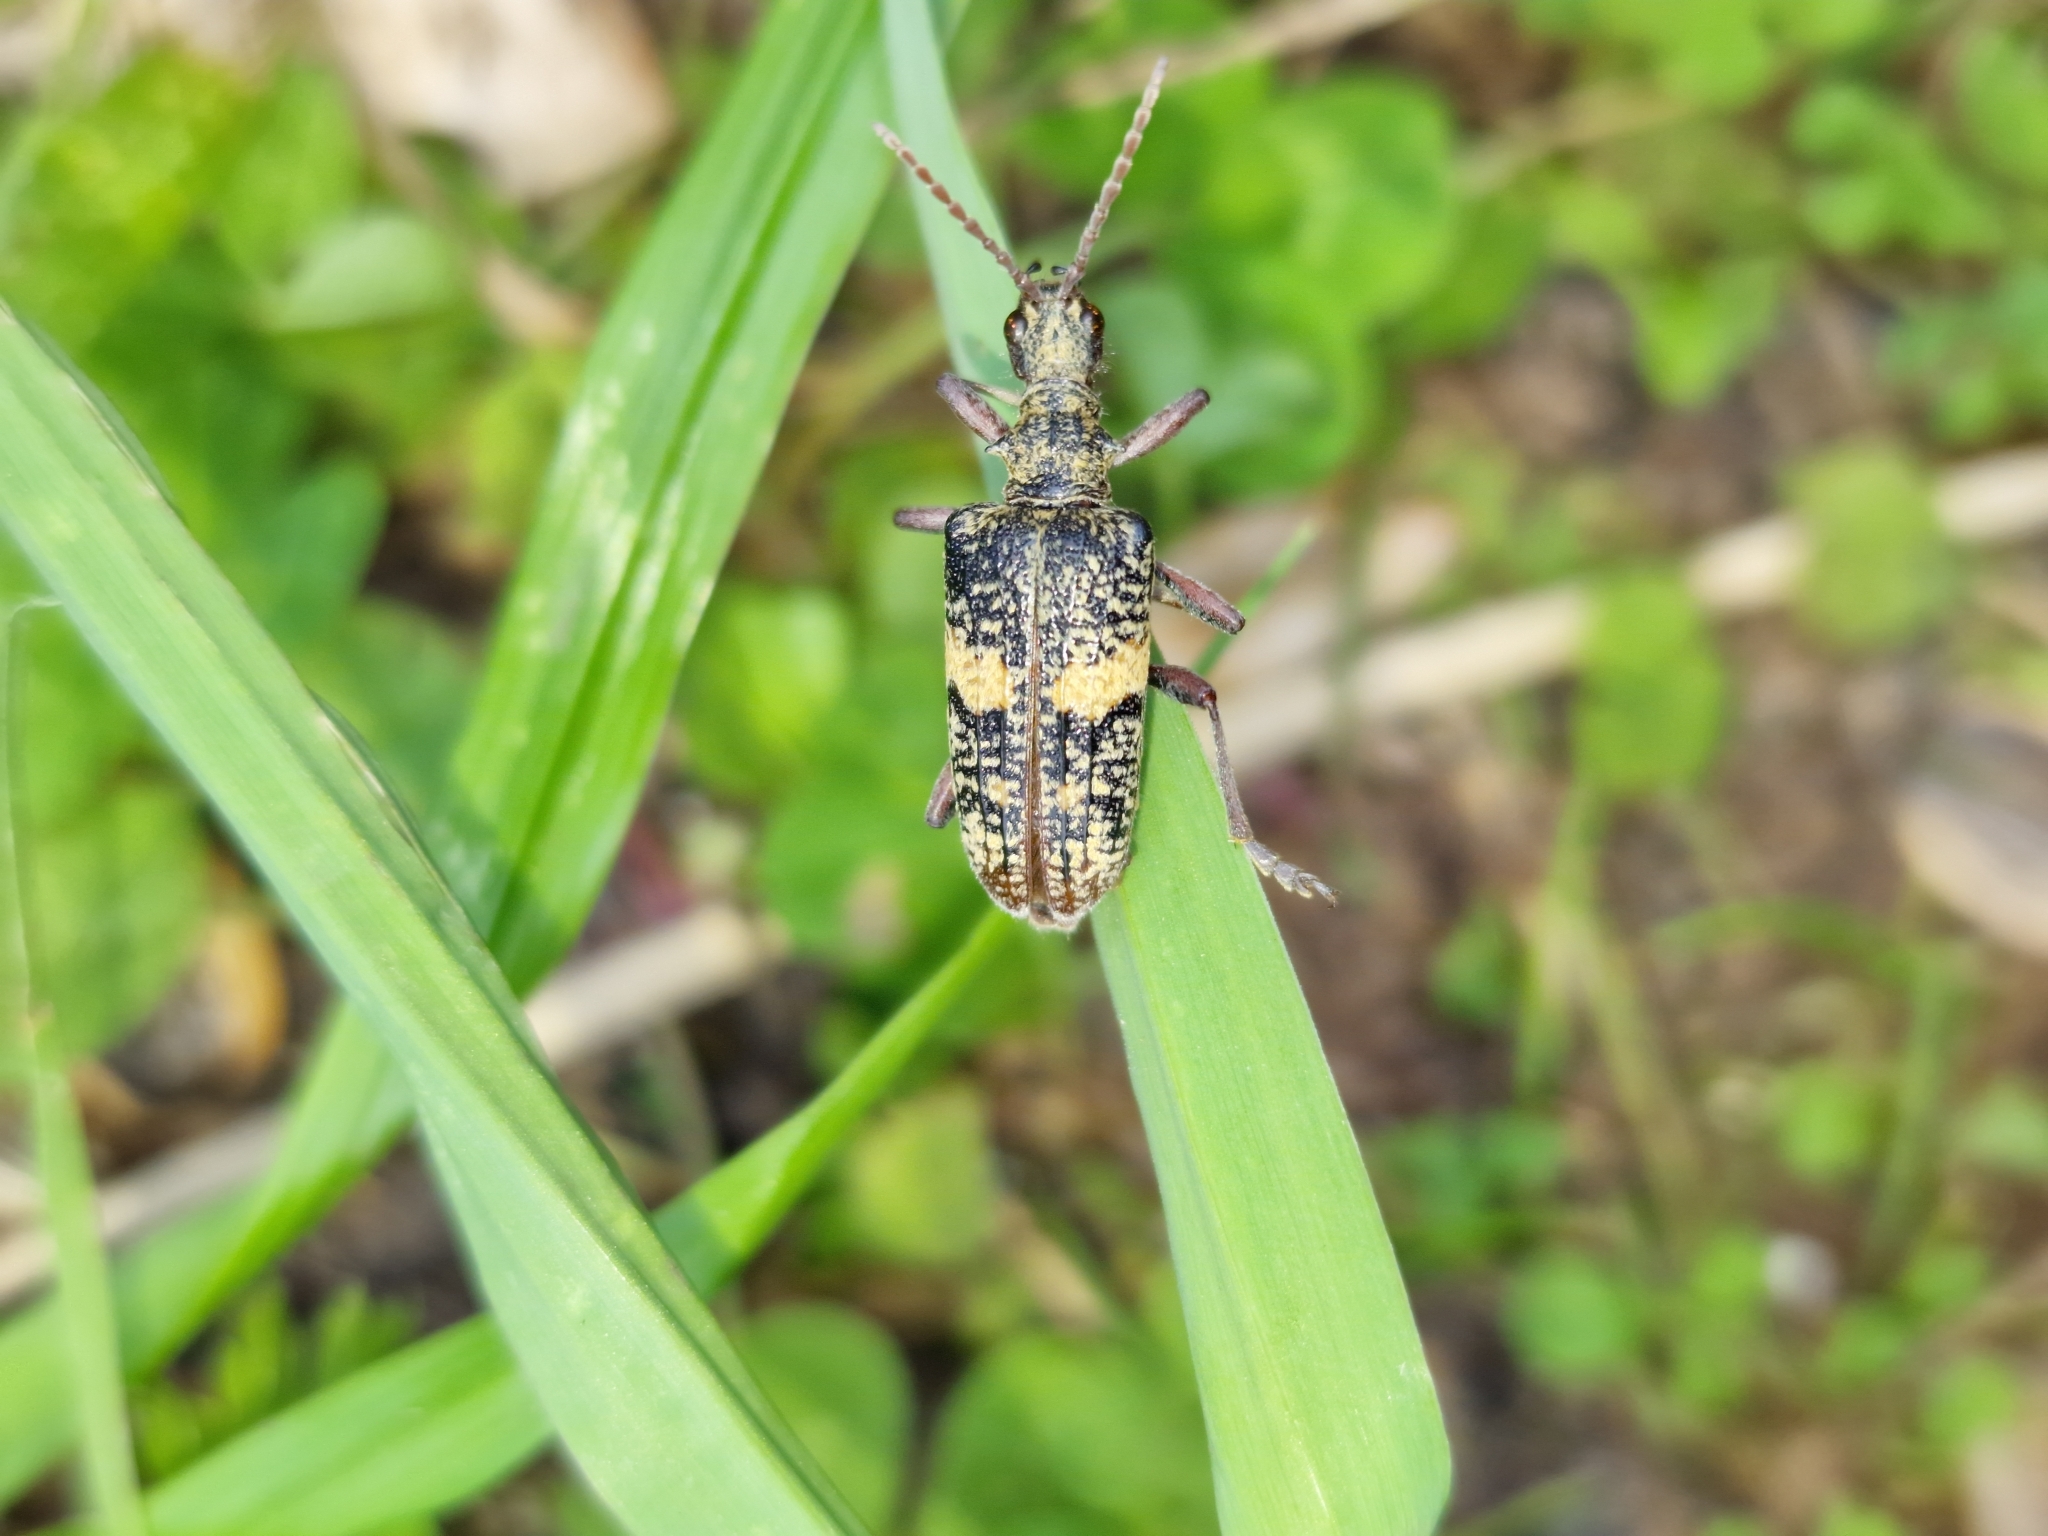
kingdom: Animalia
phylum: Arthropoda
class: Insecta
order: Coleoptera
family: Cerambycidae
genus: Rhagium
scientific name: Rhagium caucasicum
